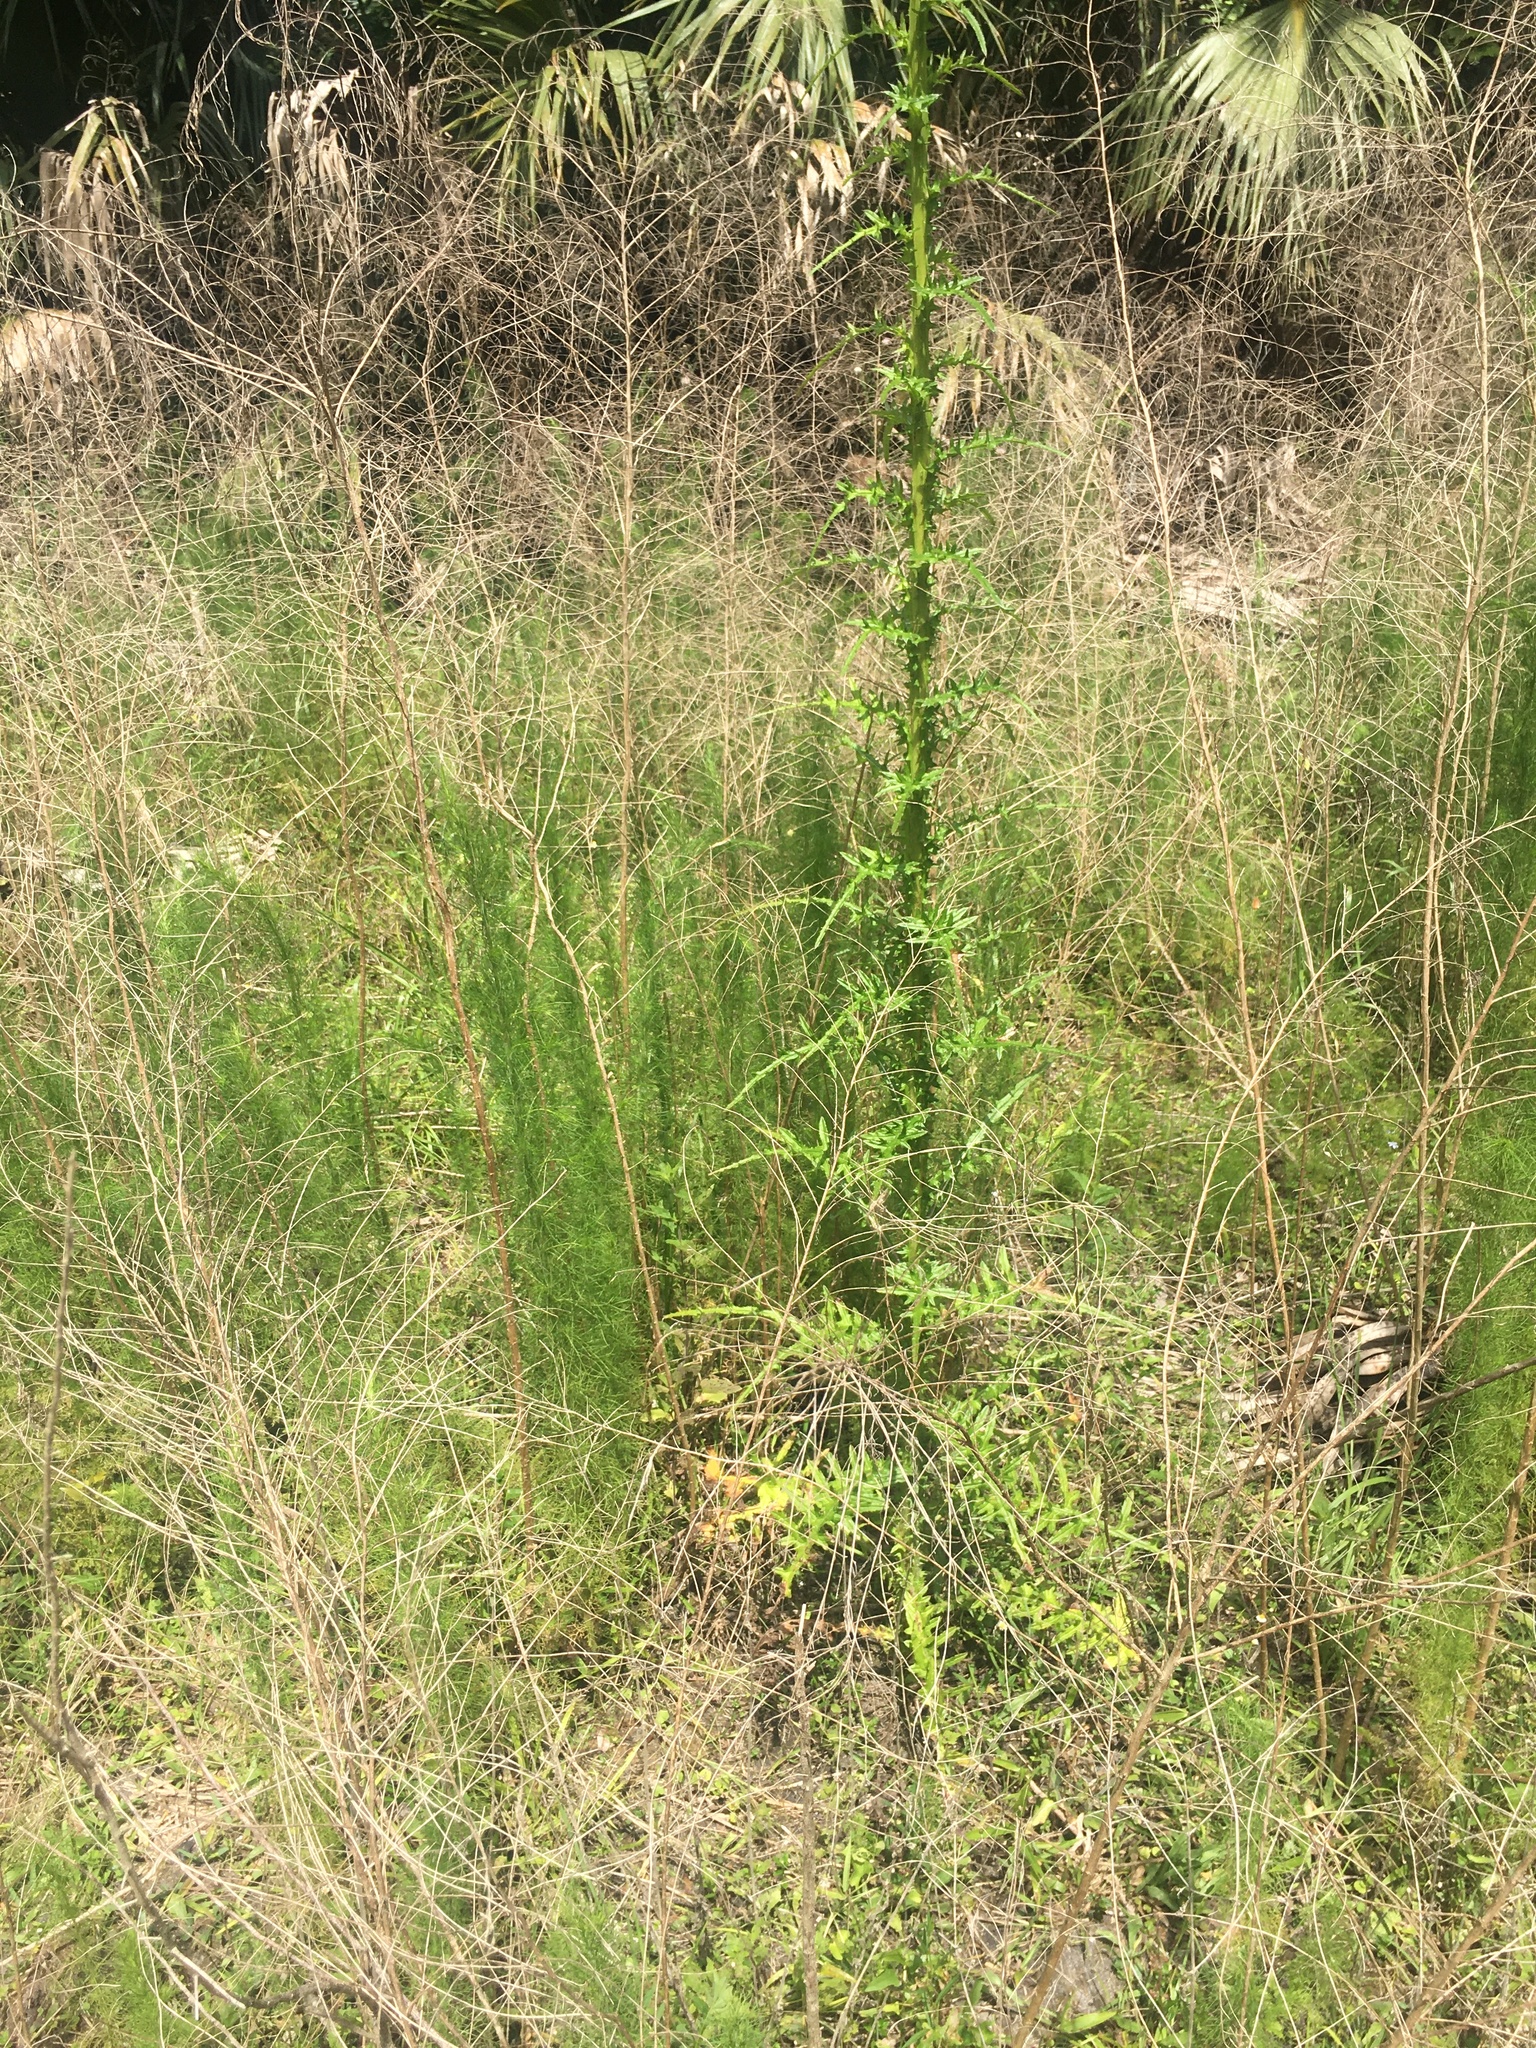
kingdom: Plantae
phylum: Tracheophyta
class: Magnoliopsida
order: Asterales
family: Asteraceae
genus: Cirsium
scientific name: Cirsium nuttalii
